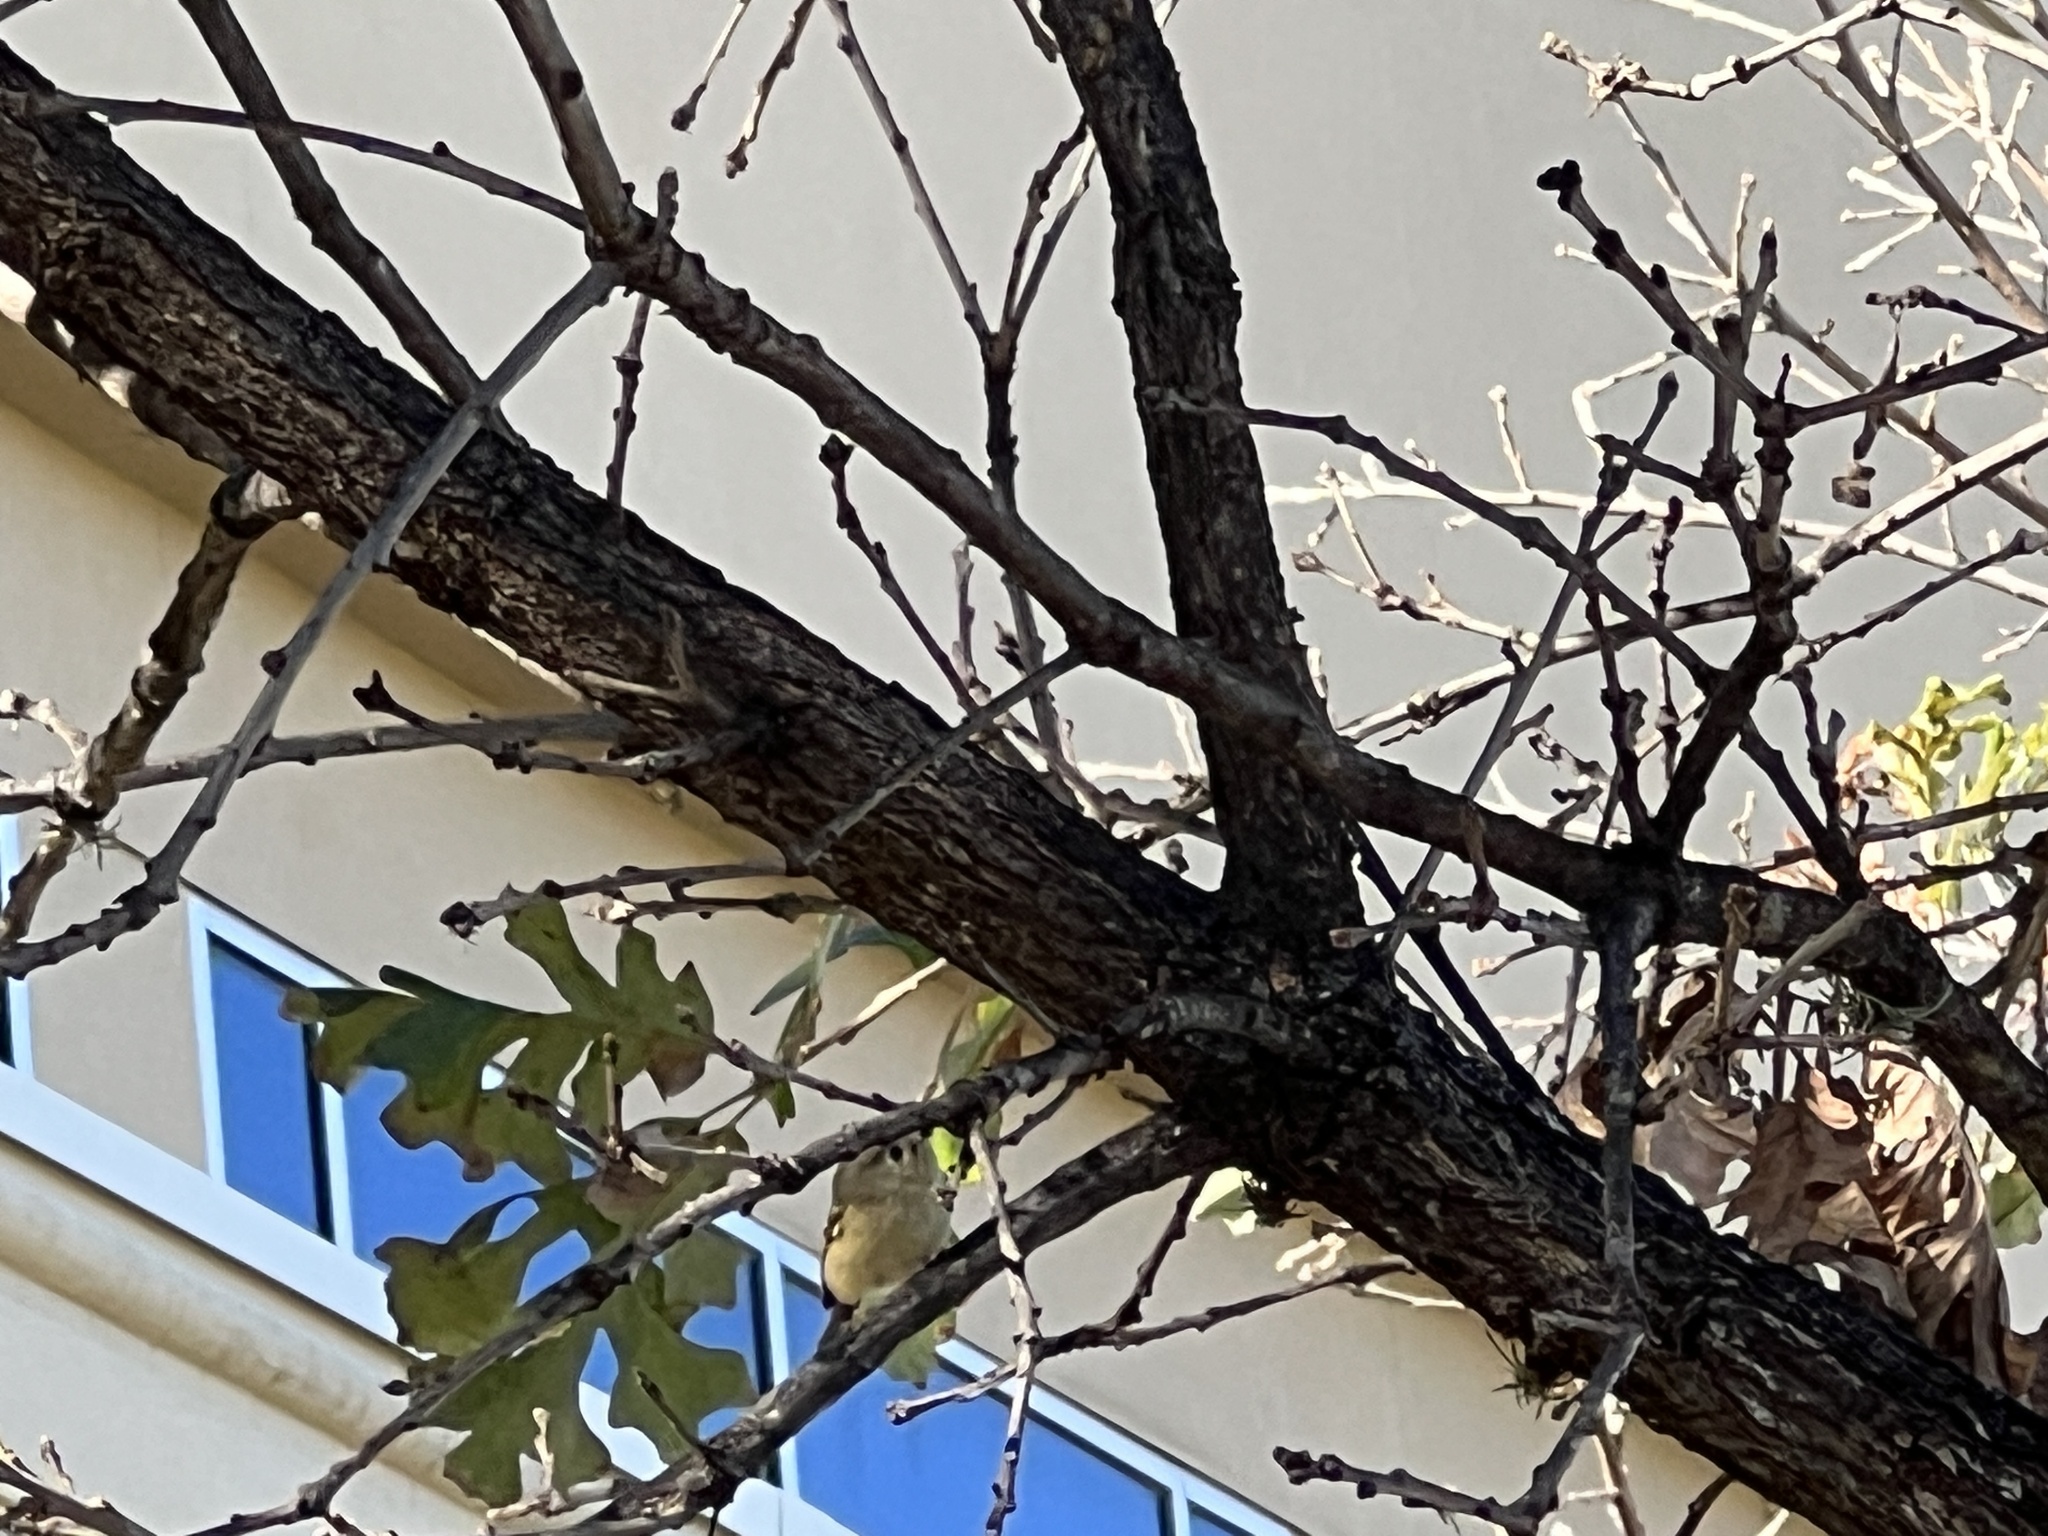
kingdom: Animalia
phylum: Chordata
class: Aves
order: Passeriformes
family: Regulidae
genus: Regulus
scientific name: Regulus calendula
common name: Ruby-crowned kinglet
